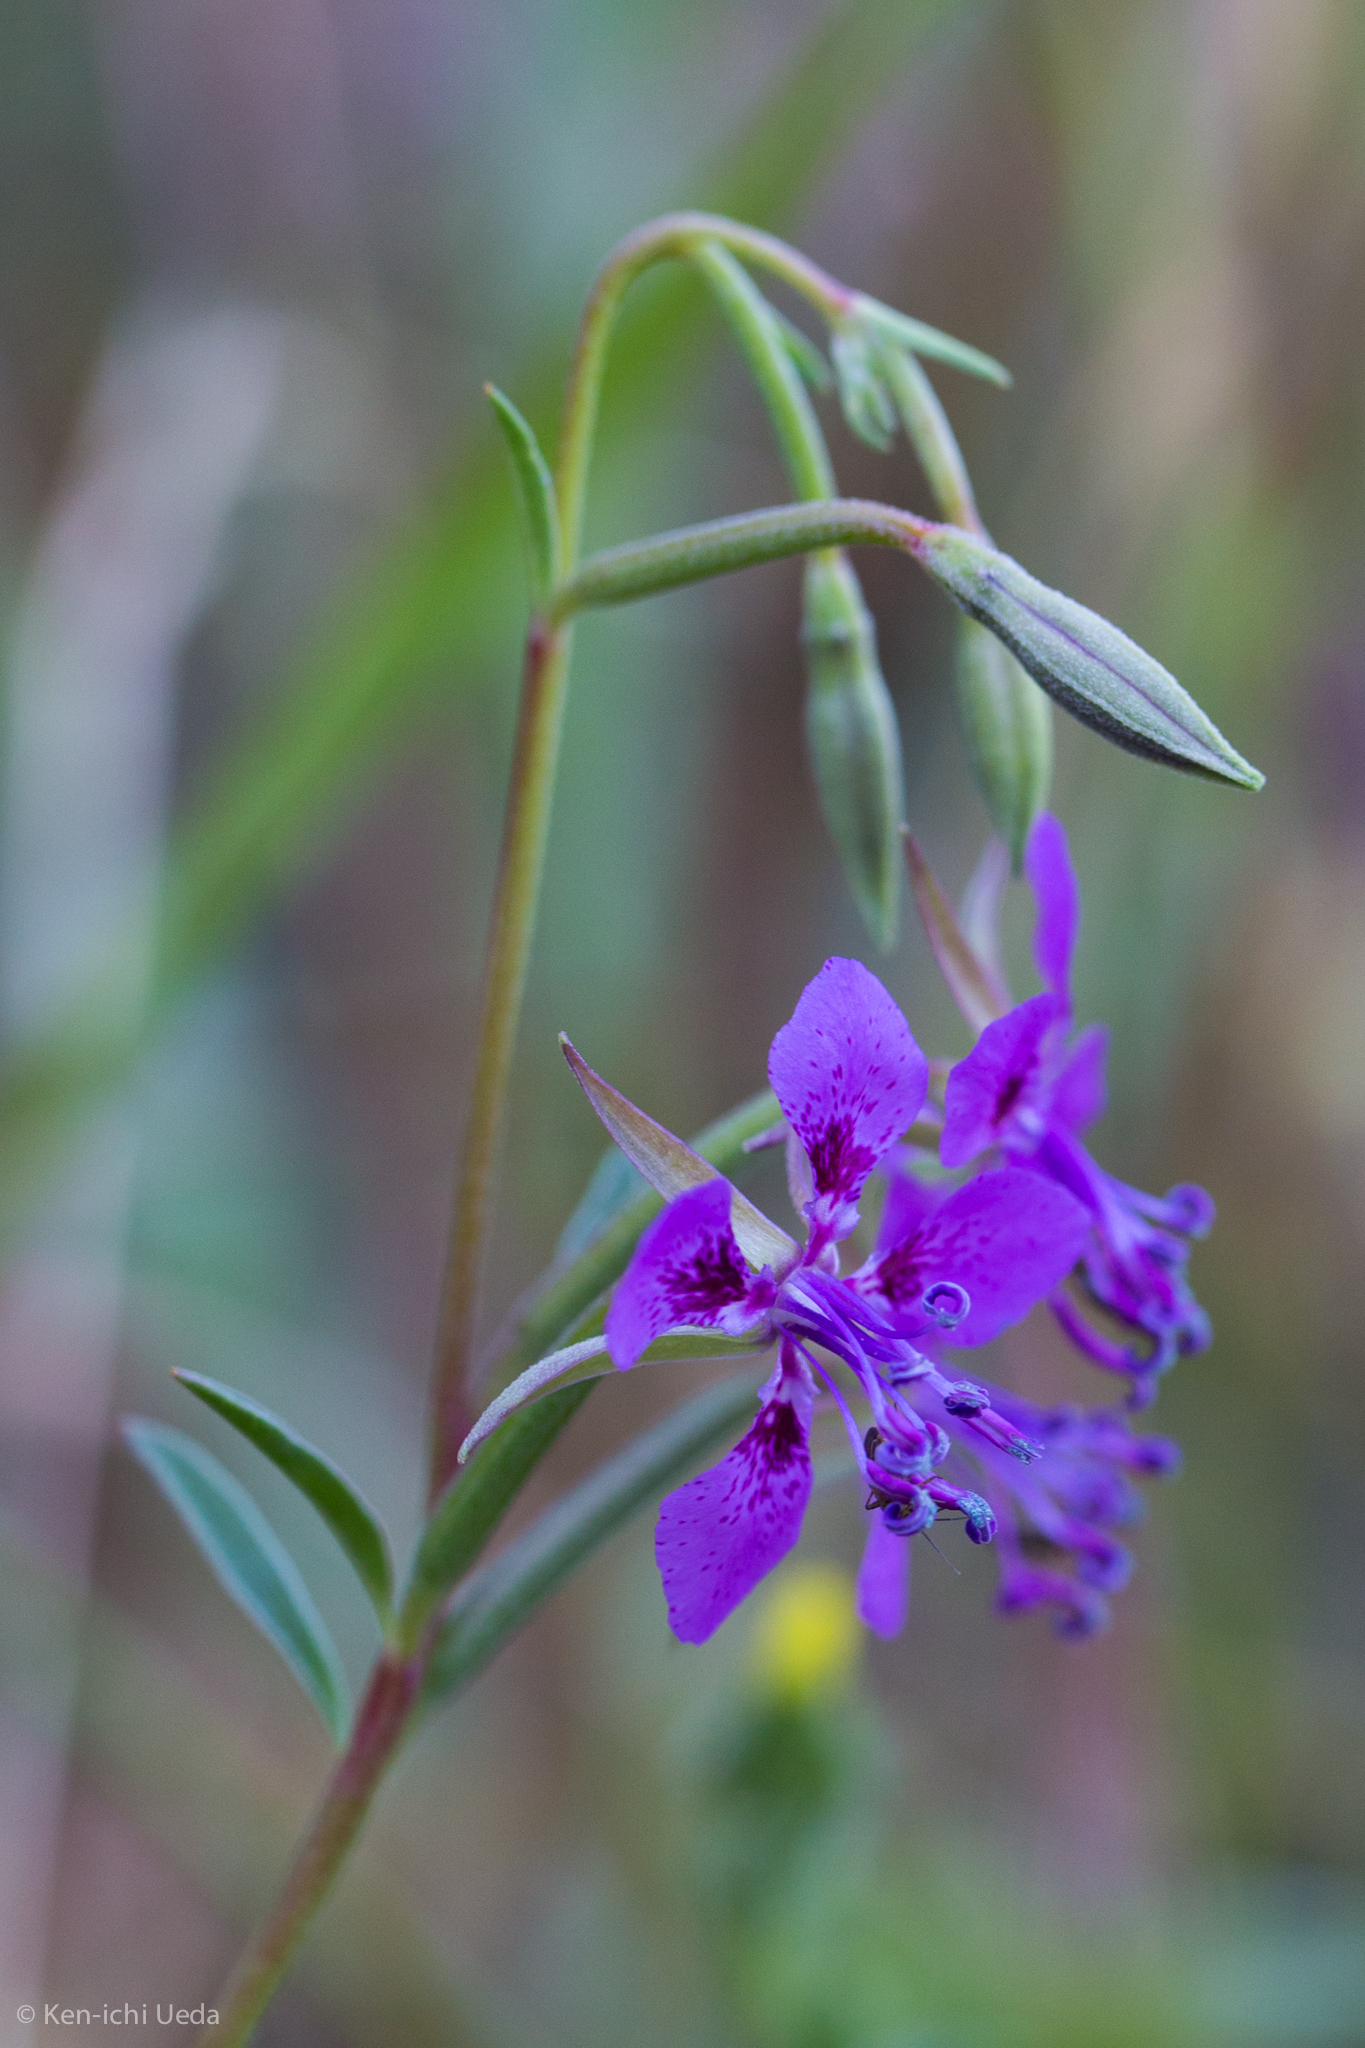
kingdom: Plantae
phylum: Tracheophyta
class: Magnoliopsida
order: Myrtales
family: Onagraceae
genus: Clarkia
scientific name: Clarkia rhomboidea
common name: Broadleaf clarkia
